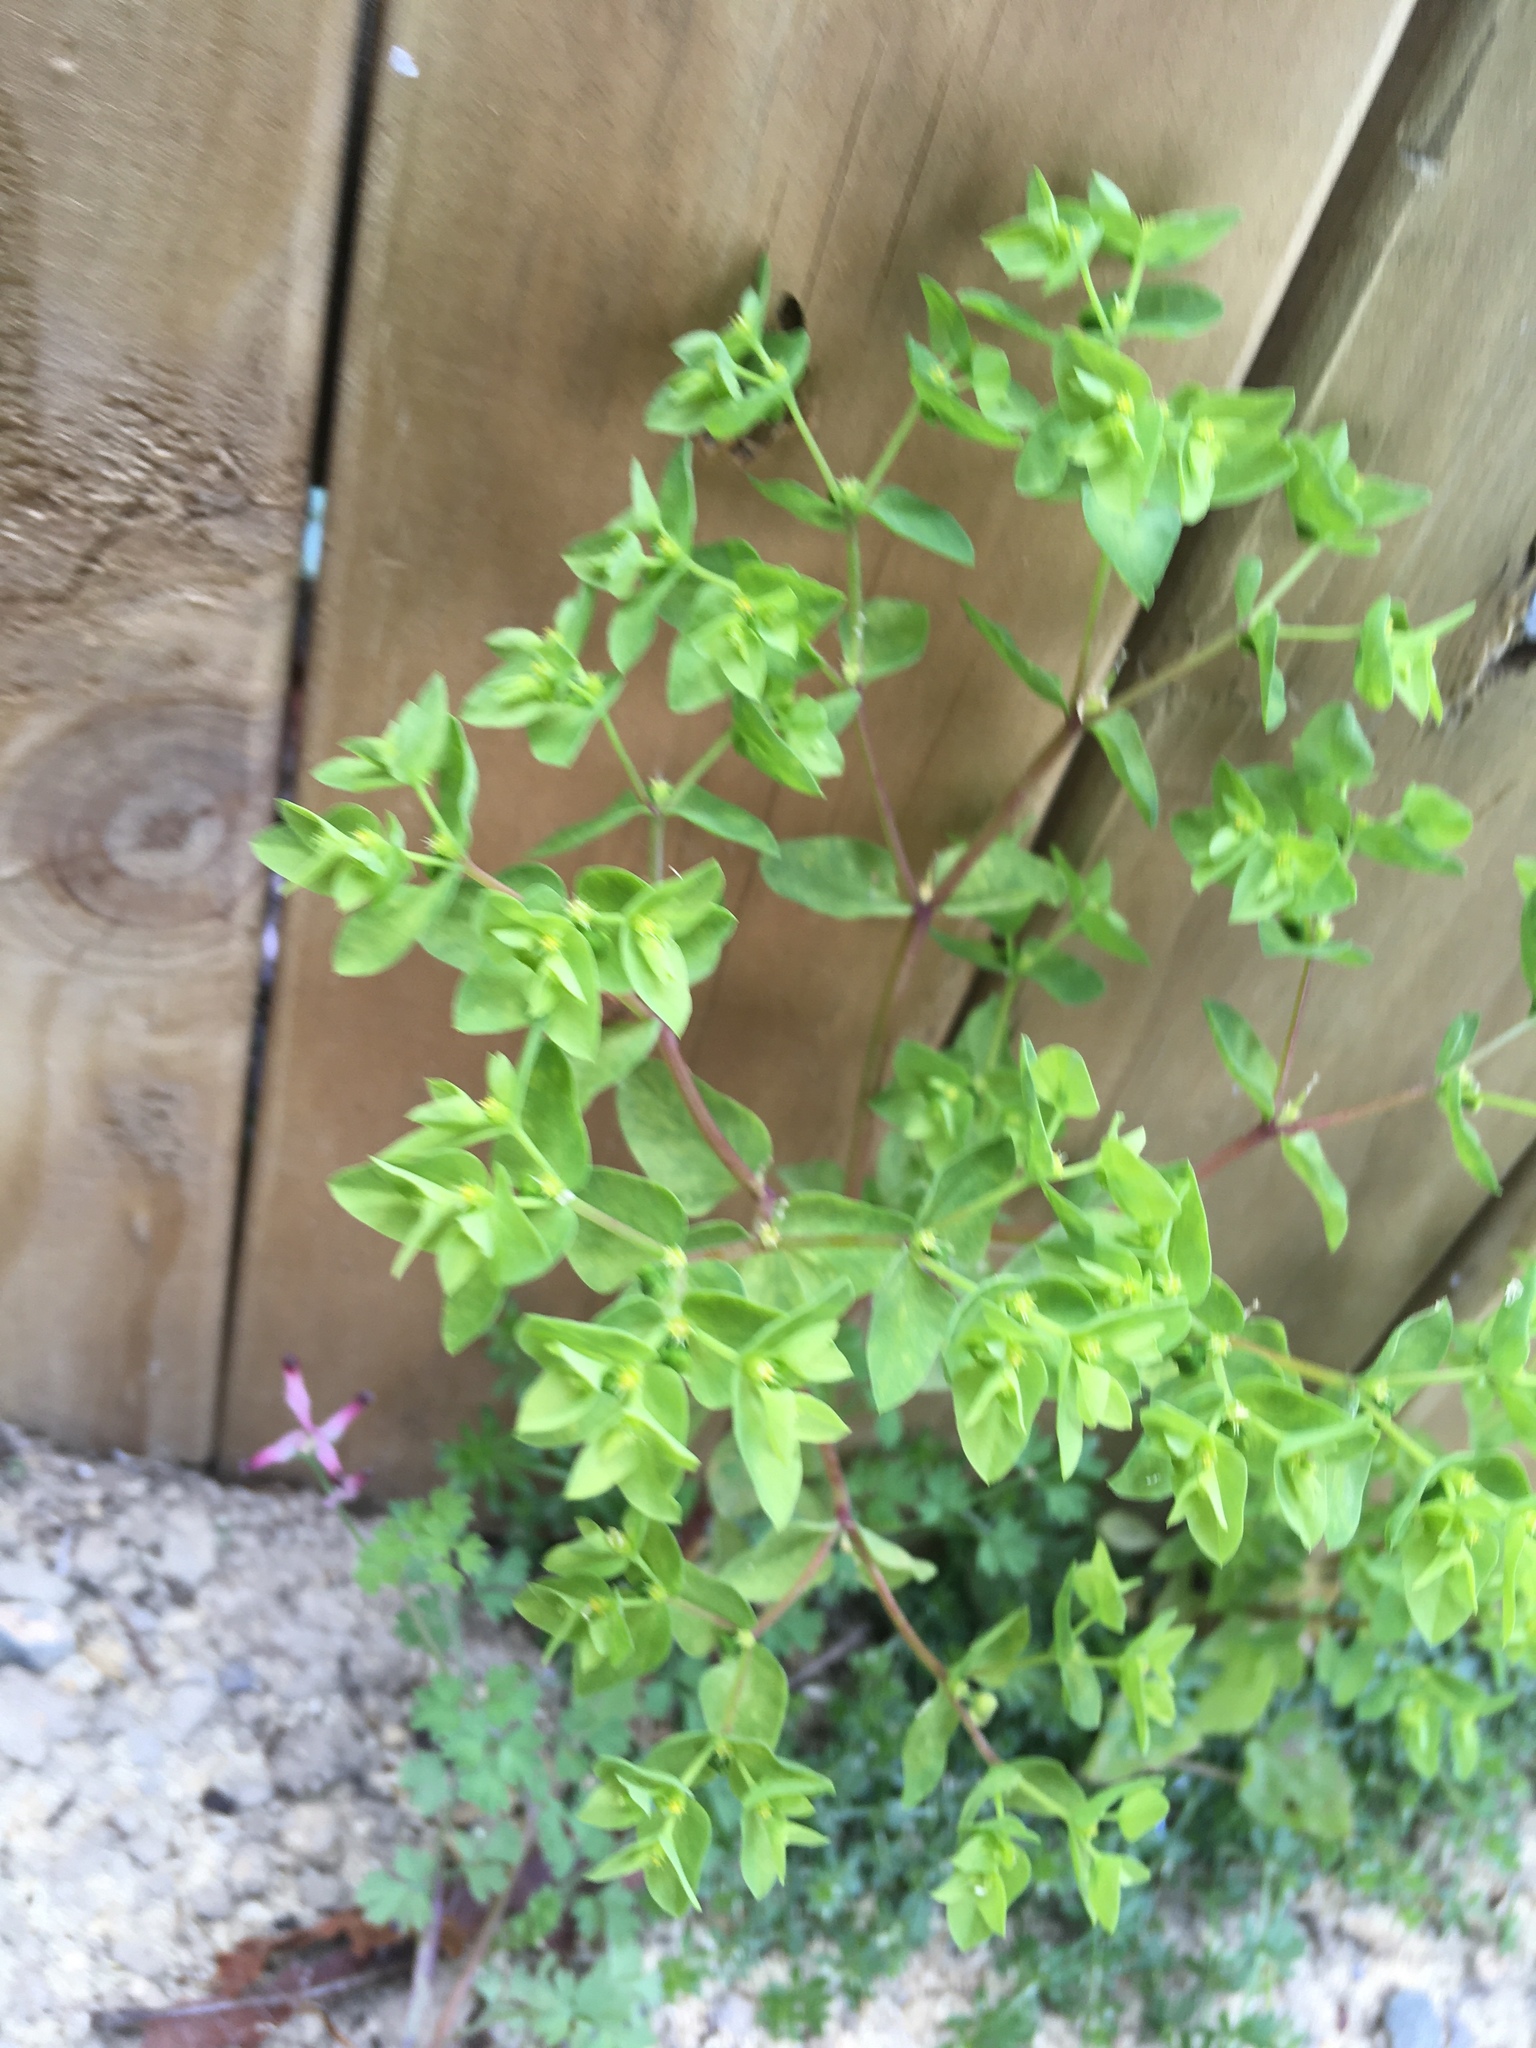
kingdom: Plantae
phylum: Tracheophyta
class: Magnoliopsida
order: Malpighiales
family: Euphorbiaceae
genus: Euphorbia
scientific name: Euphorbia peplus
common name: Petty spurge
